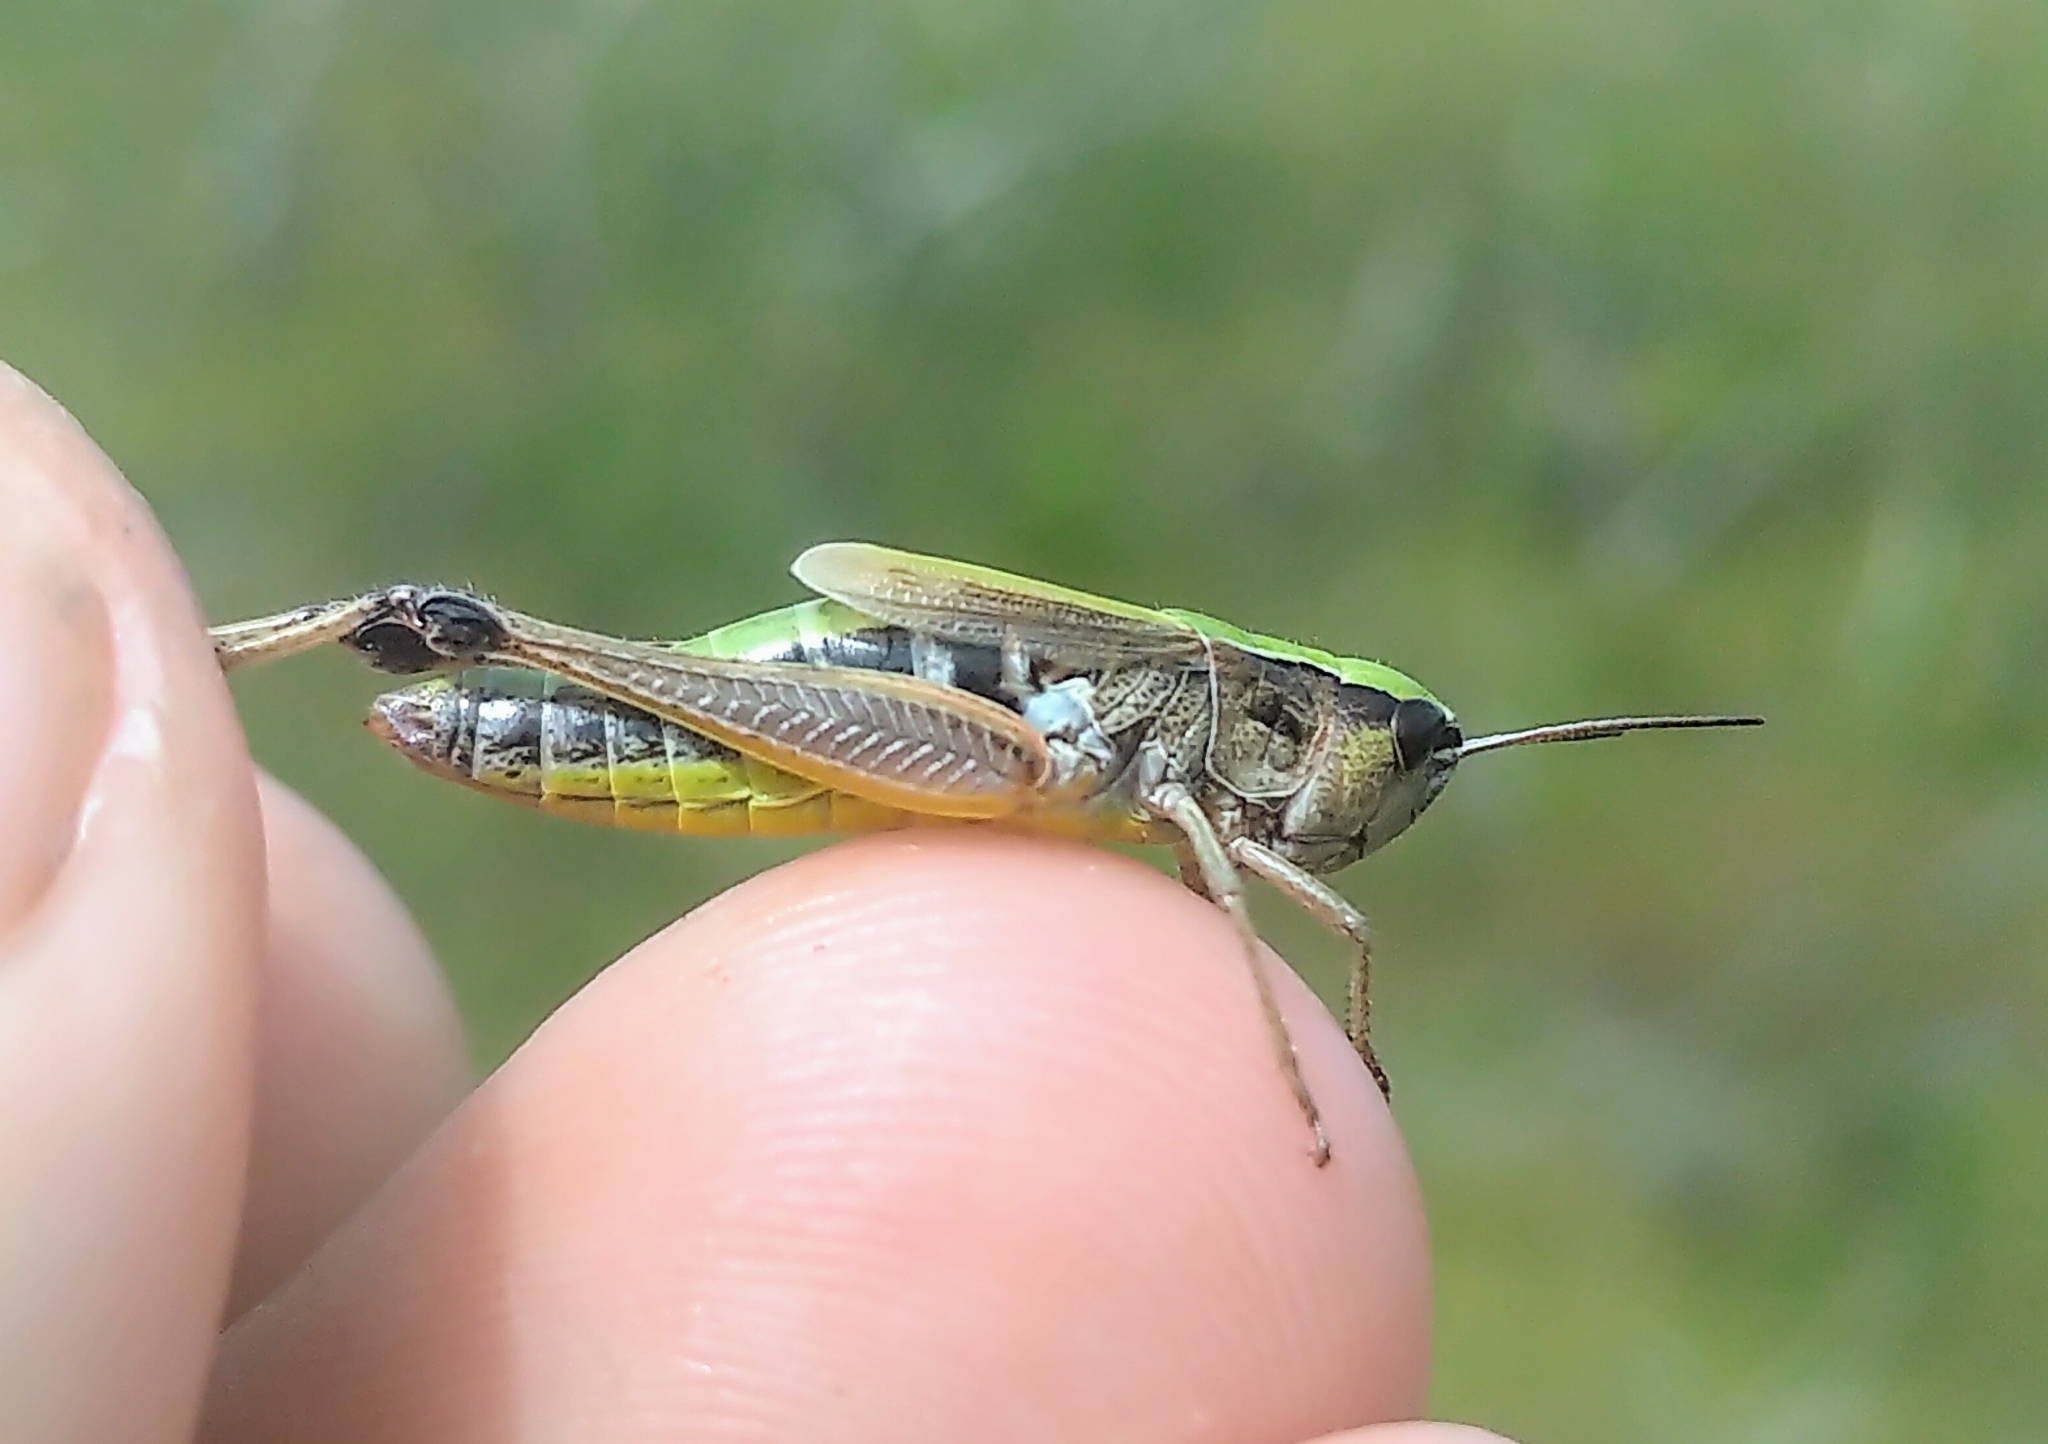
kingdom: Animalia
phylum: Arthropoda
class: Insecta
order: Orthoptera
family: Acrididae
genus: Pseudochorthippus
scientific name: Pseudochorthippus curtipennis
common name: Marsh meadow grasshopper
